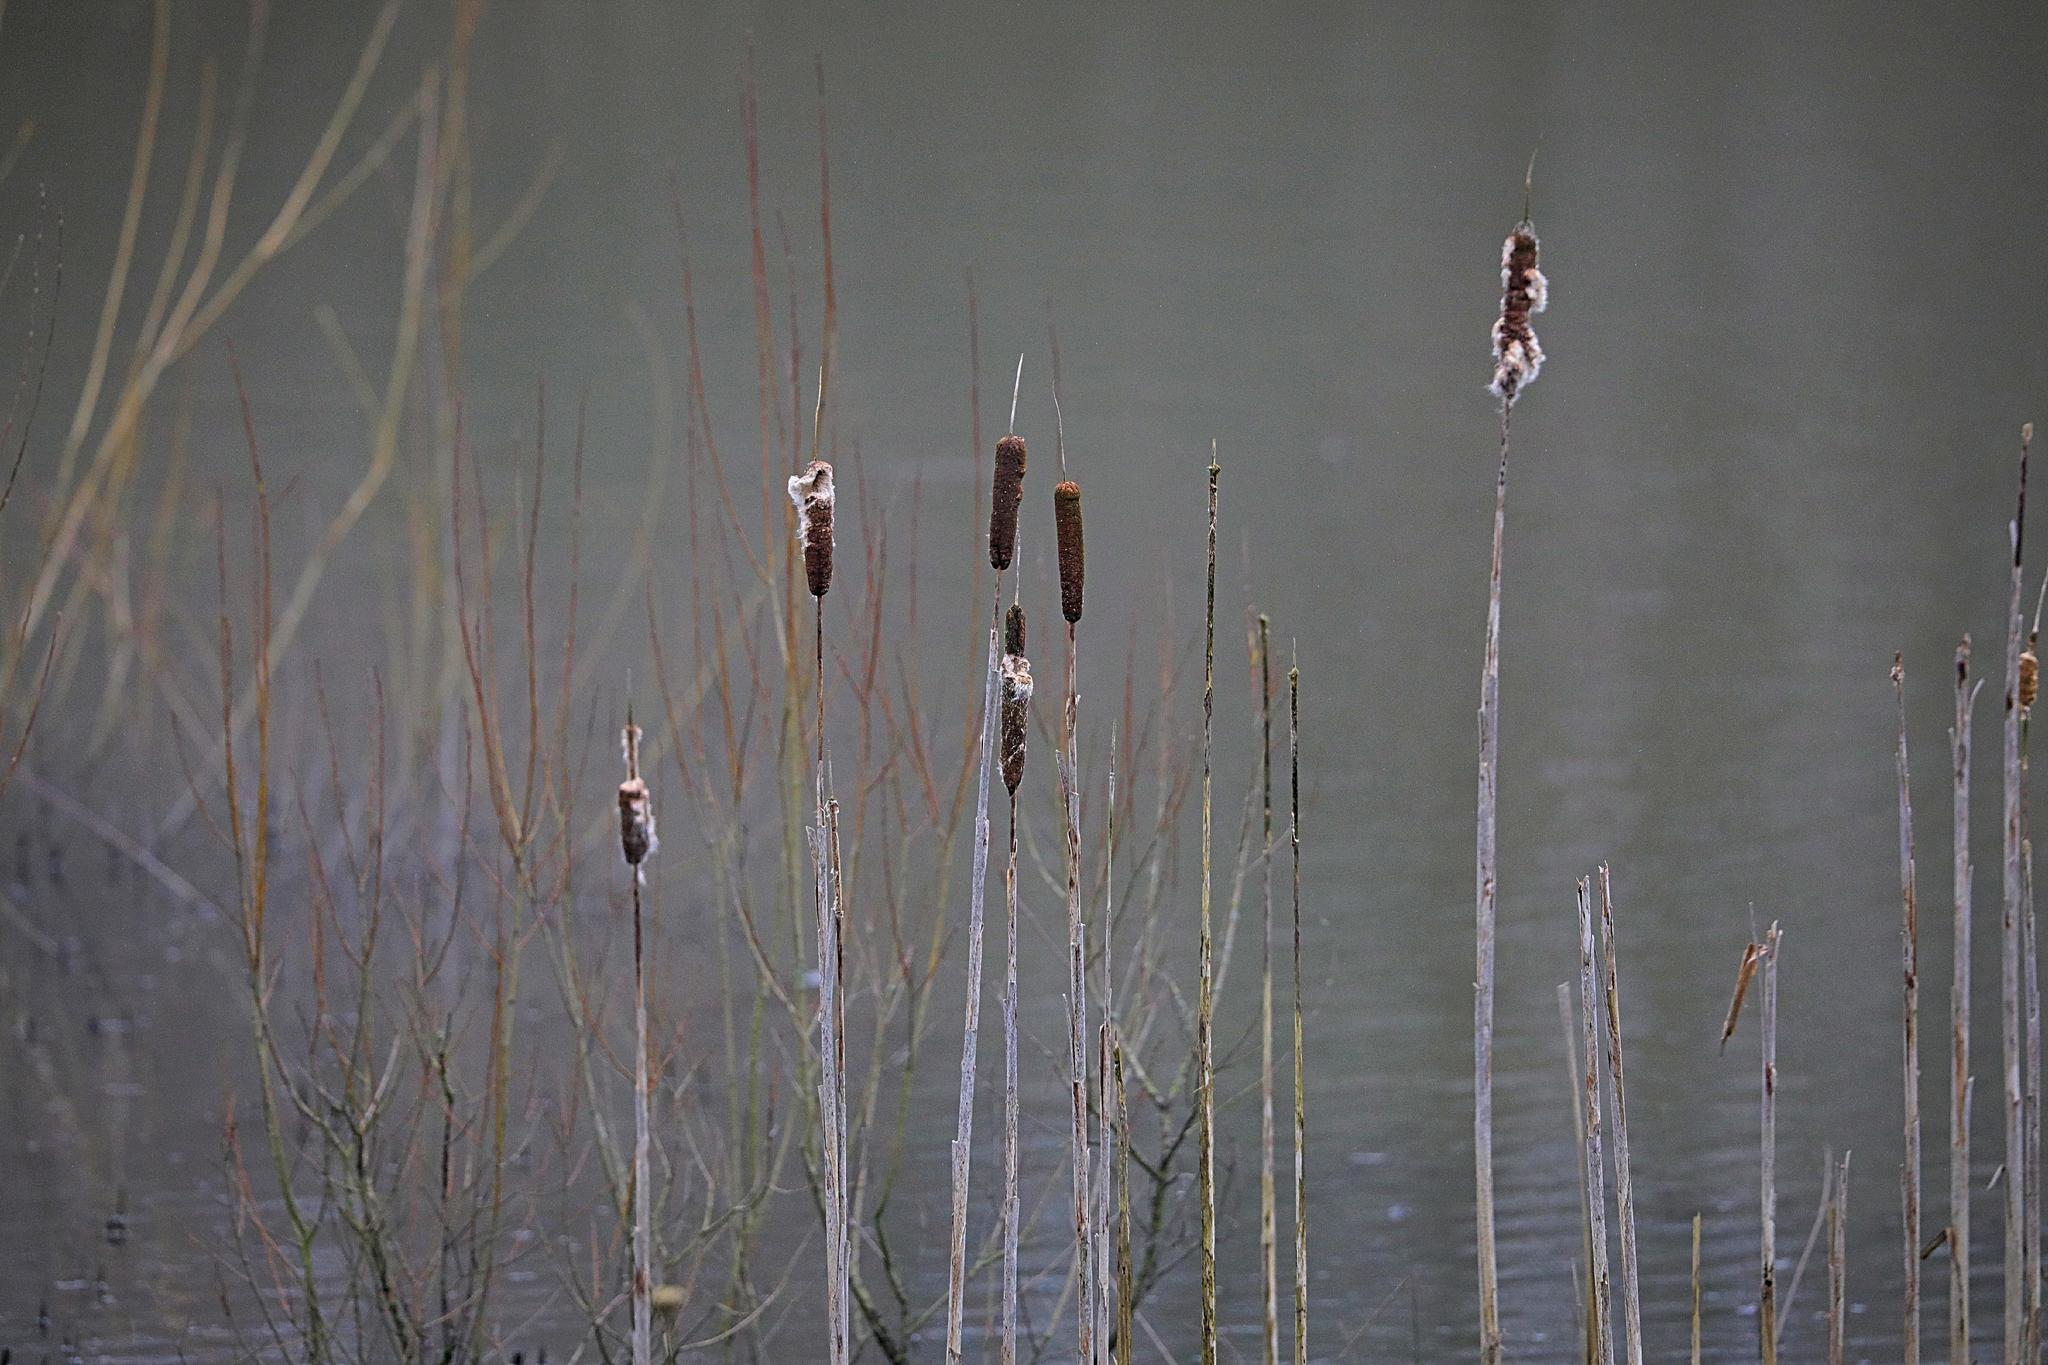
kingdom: Plantae
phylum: Tracheophyta
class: Liliopsida
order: Poales
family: Typhaceae
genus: Typha
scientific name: Typha latifolia
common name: Broadleaf cattail
